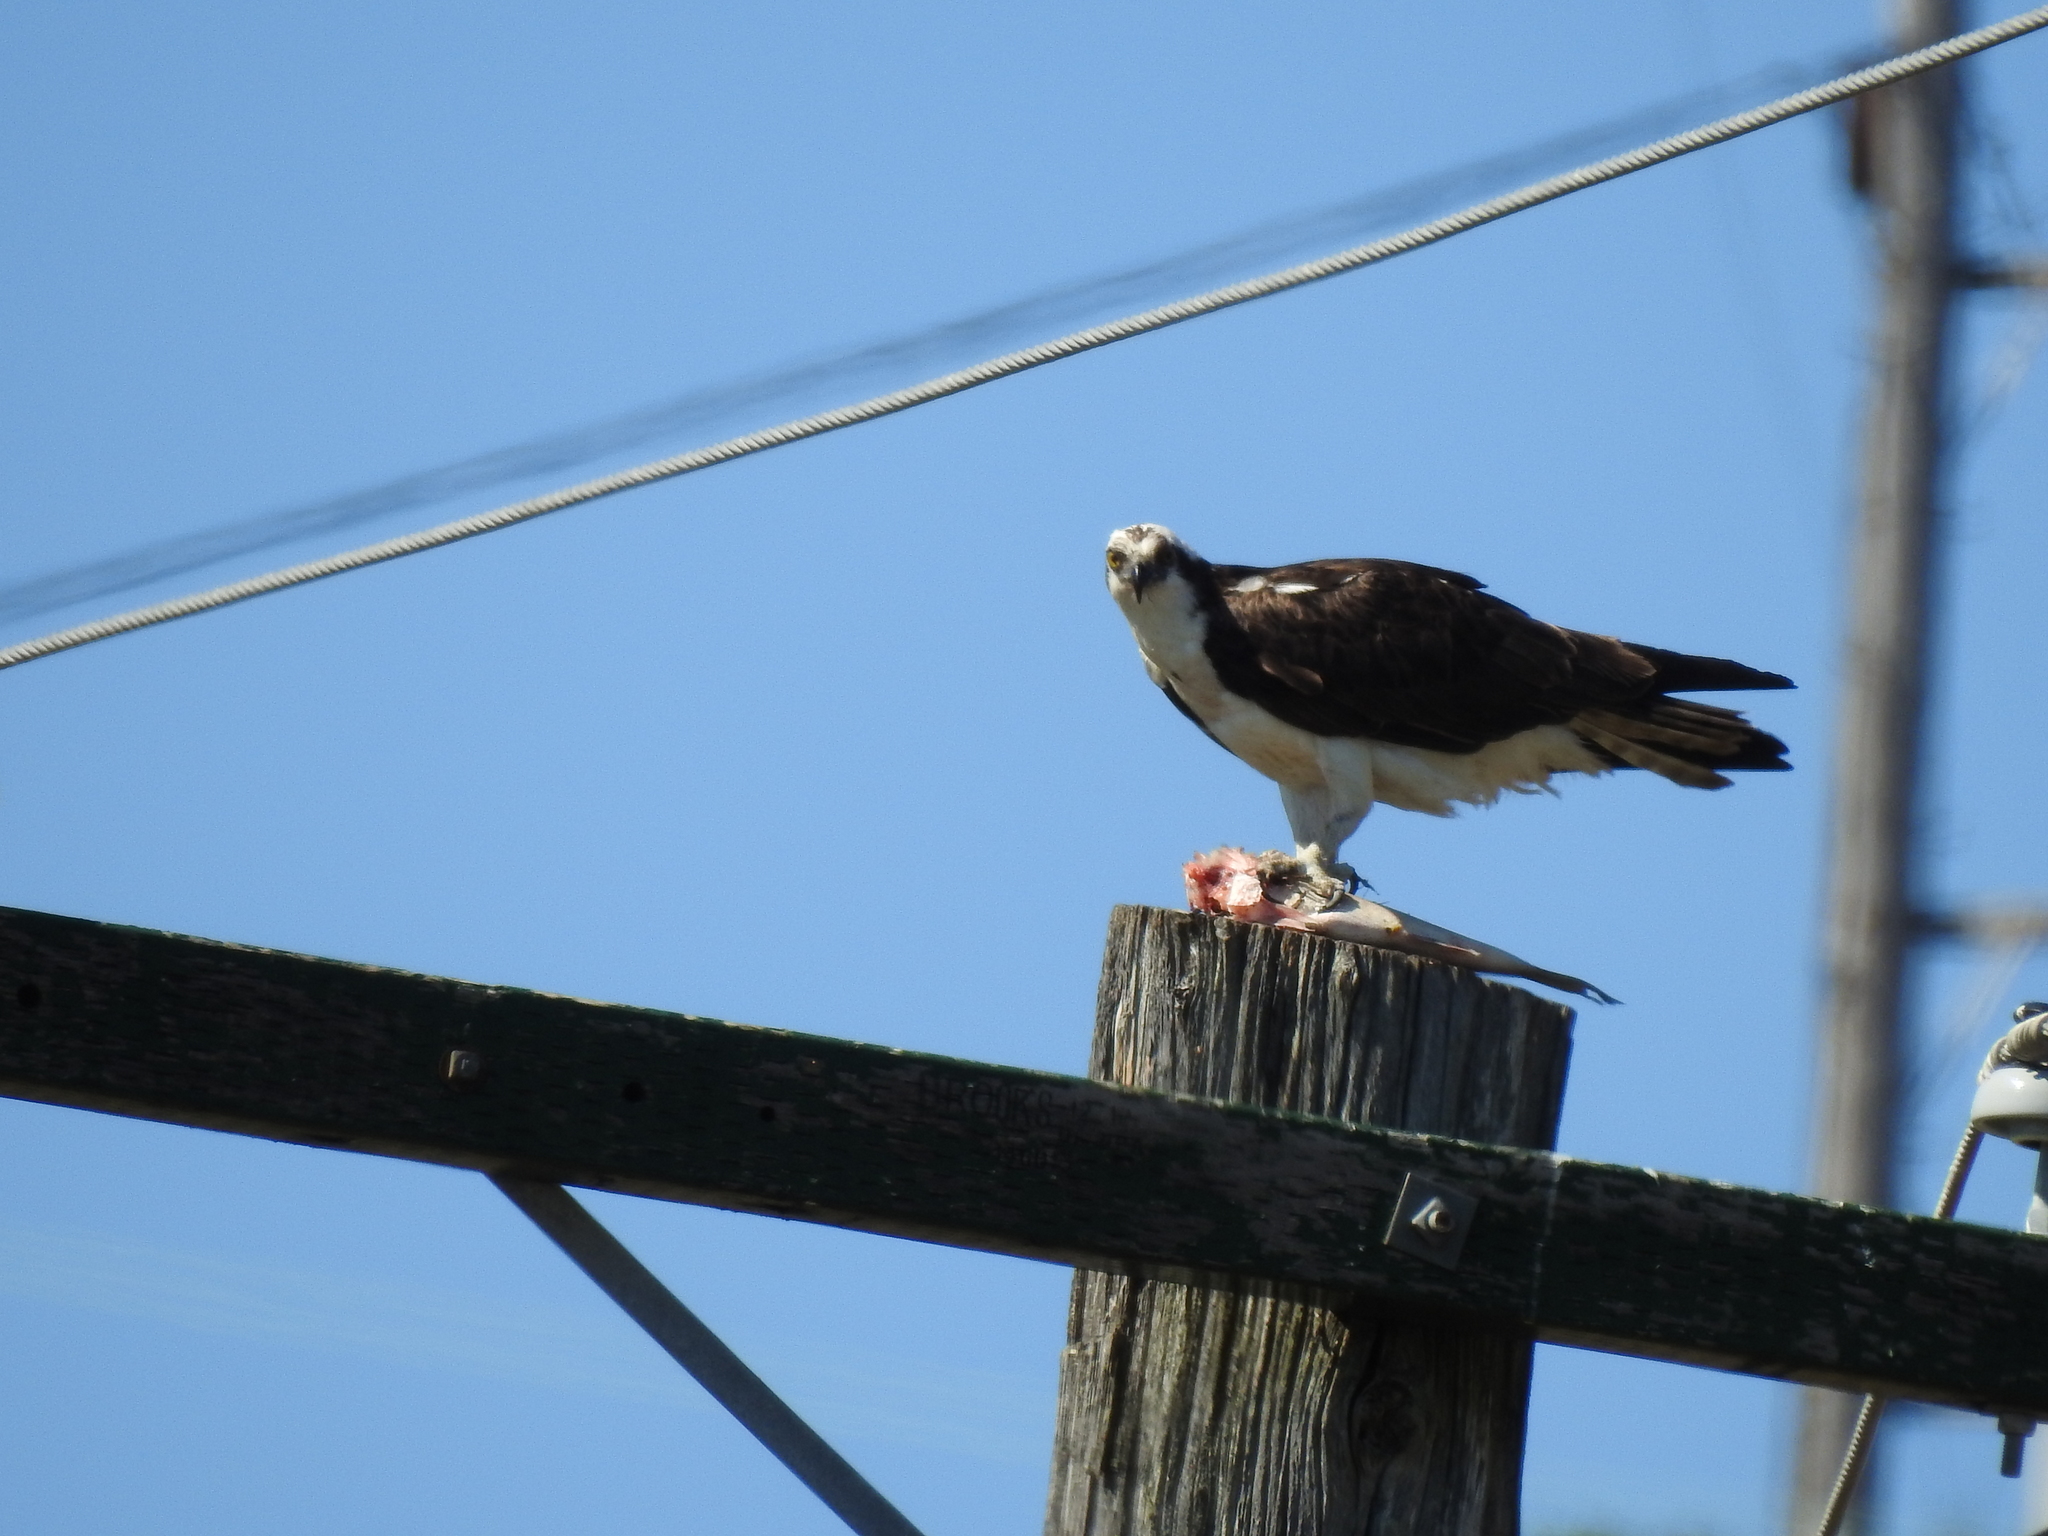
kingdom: Animalia
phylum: Chordata
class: Aves
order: Accipitriformes
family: Pandionidae
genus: Pandion
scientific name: Pandion haliaetus
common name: Osprey
